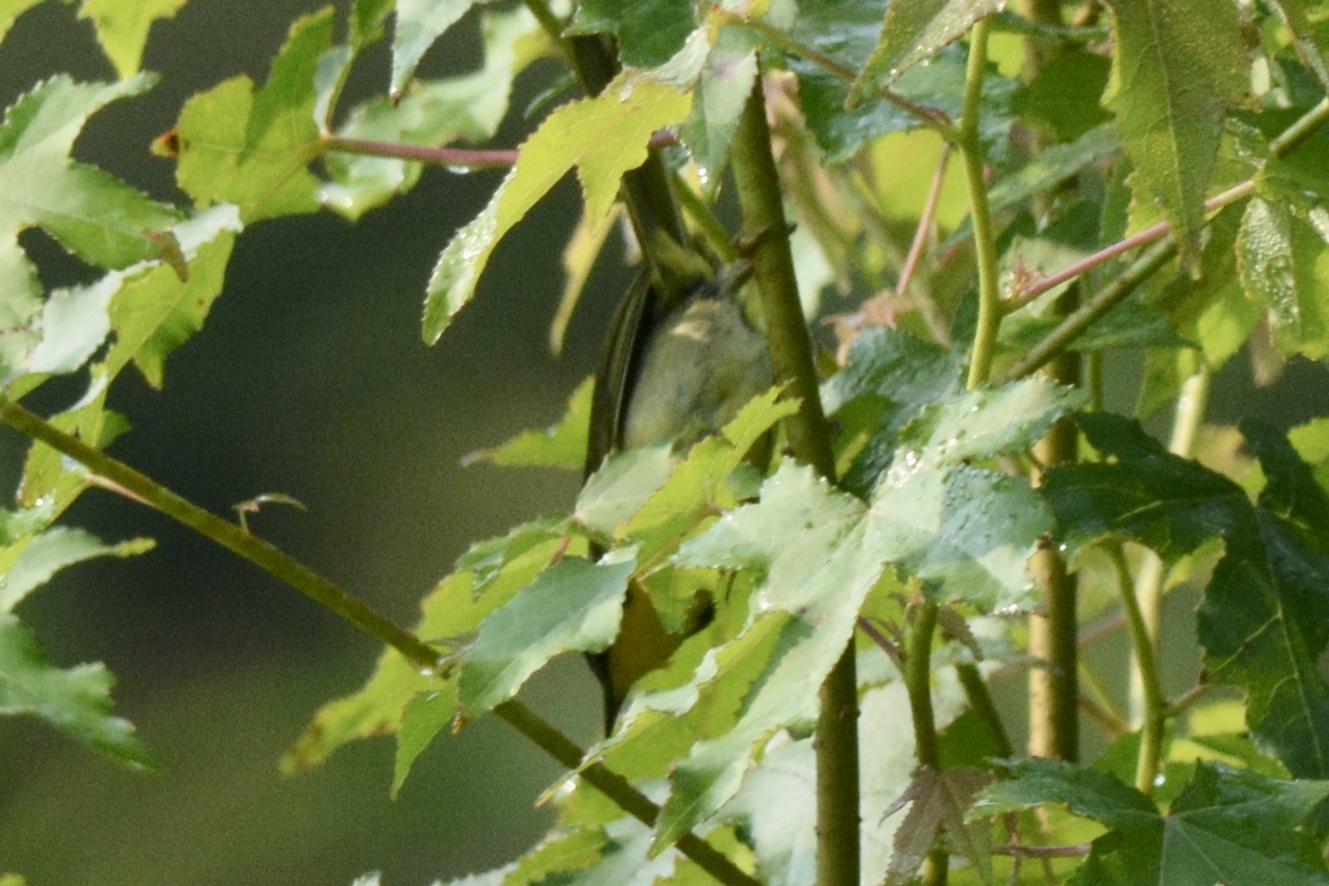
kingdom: Animalia
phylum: Chordata
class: Aves
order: Passeriformes
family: Parulidae
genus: Geothlypis
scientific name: Geothlypis trichas
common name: Common yellowthroat
